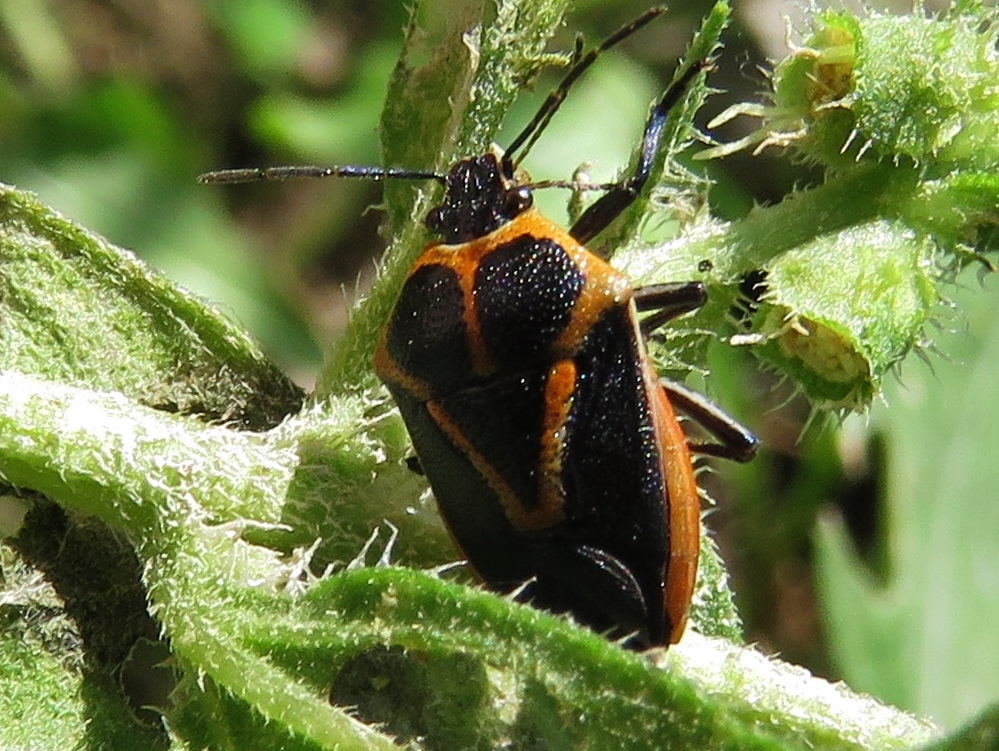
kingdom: Animalia
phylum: Arthropoda
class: Insecta
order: Hemiptera
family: Pentatomidae
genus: Perillus
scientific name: Perillus strigipes
